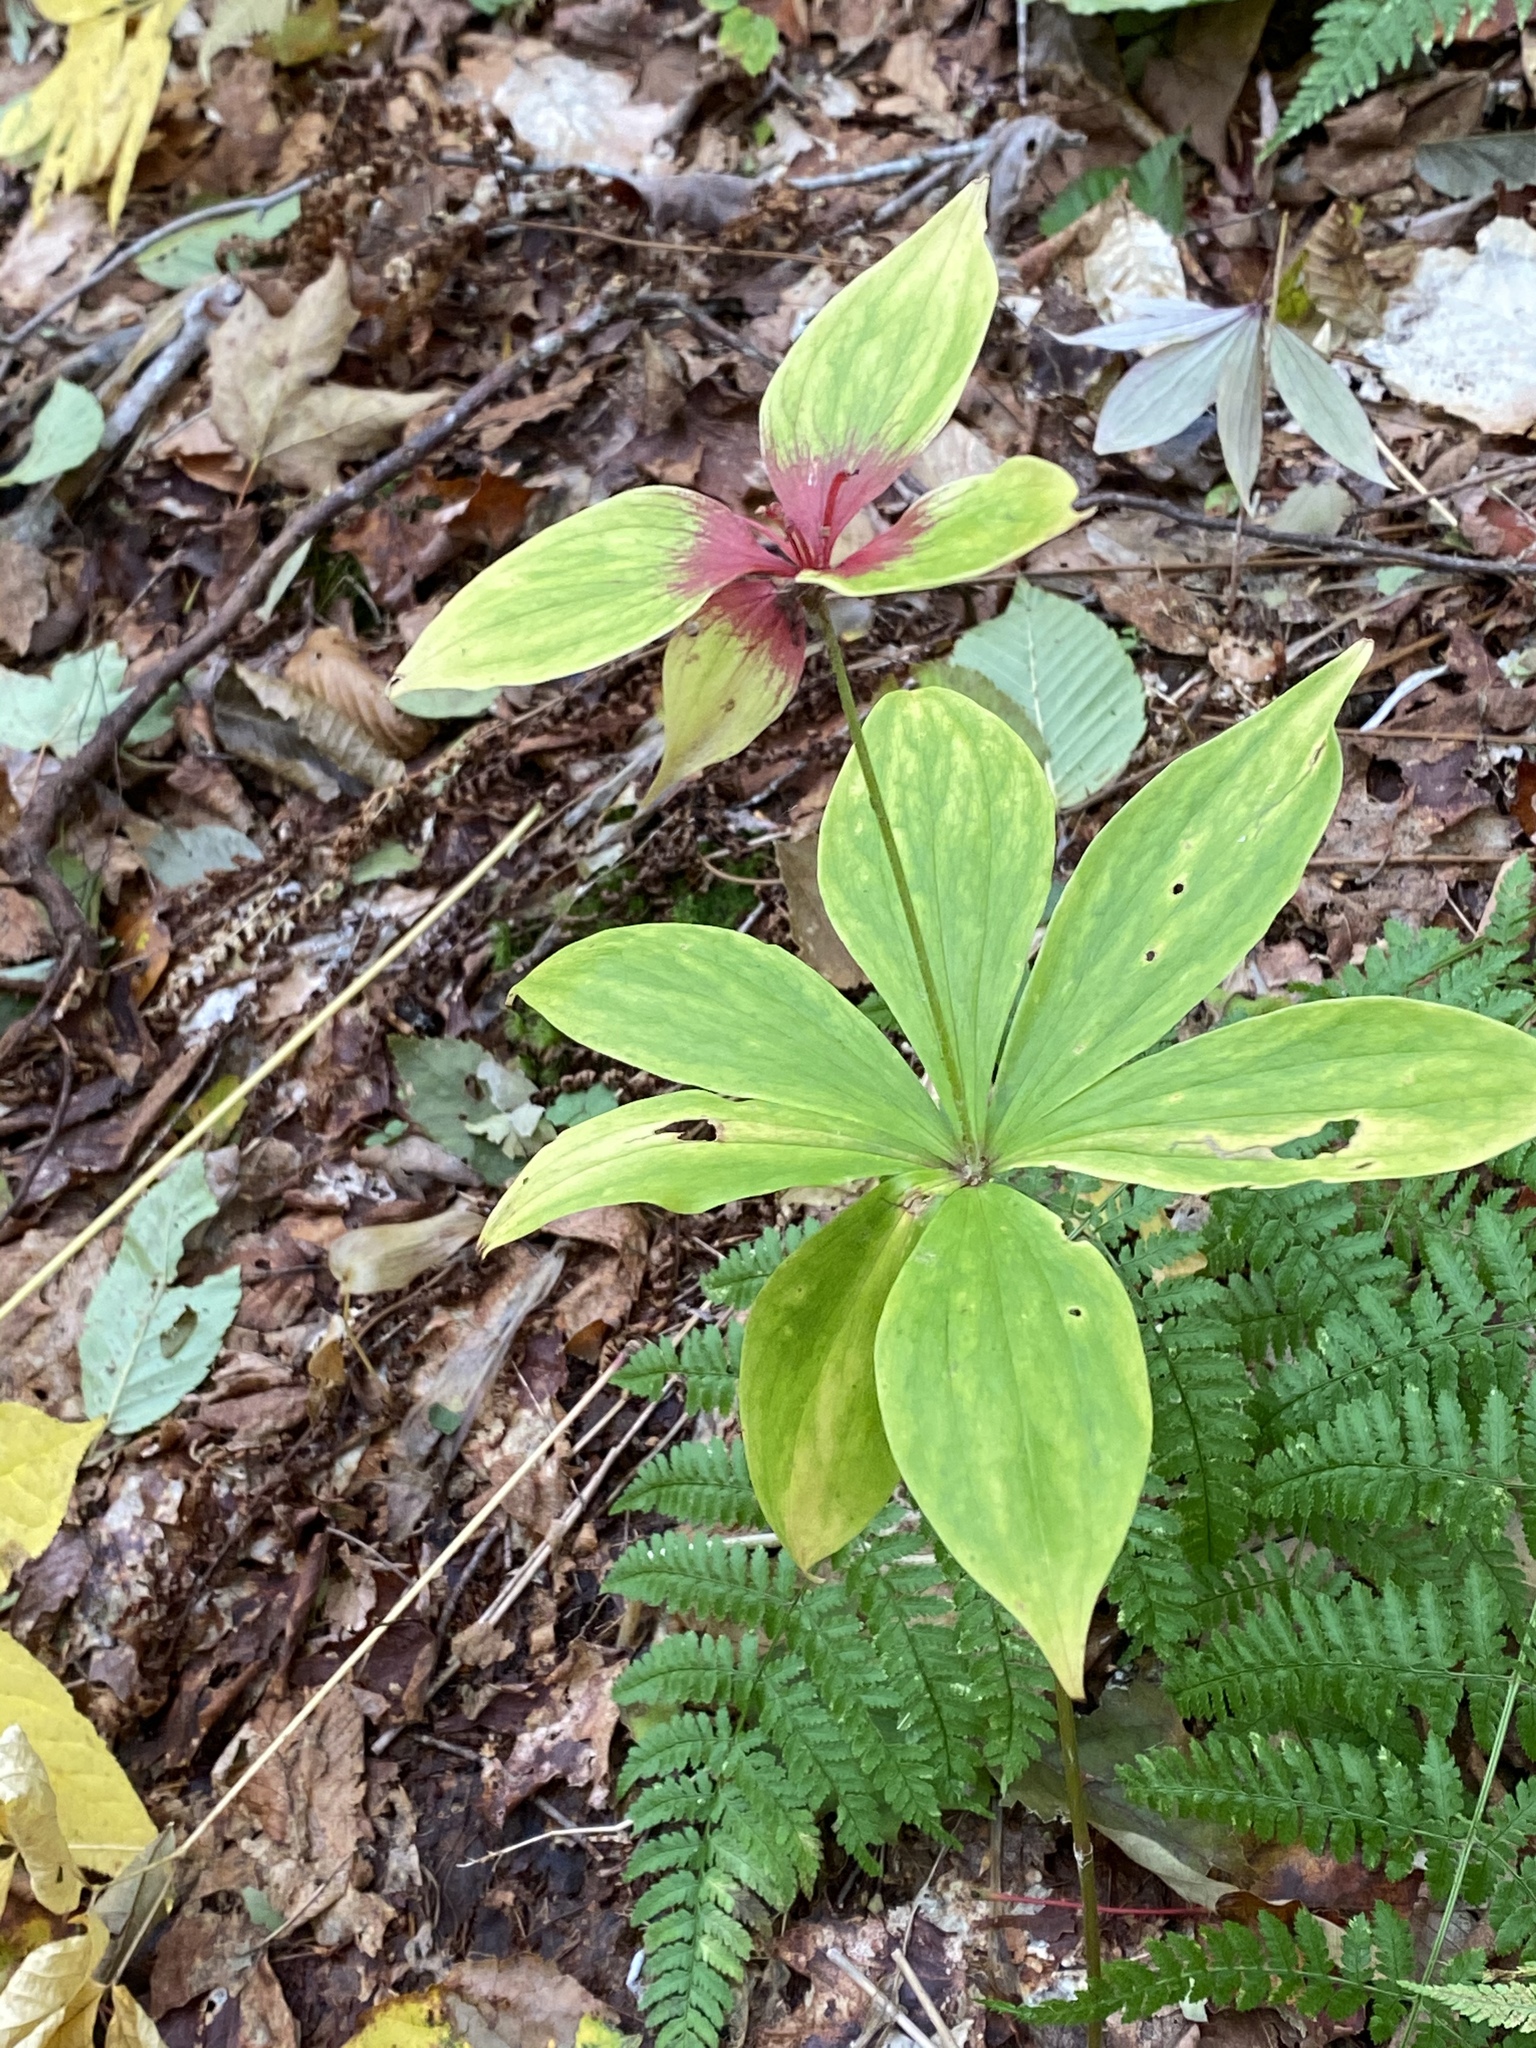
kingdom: Plantae
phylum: Tracheophyta
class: Liliopsida
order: Liliales
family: Liliaceae
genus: Medeola
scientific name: Medeola virginiana
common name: Indian cucumber-root
